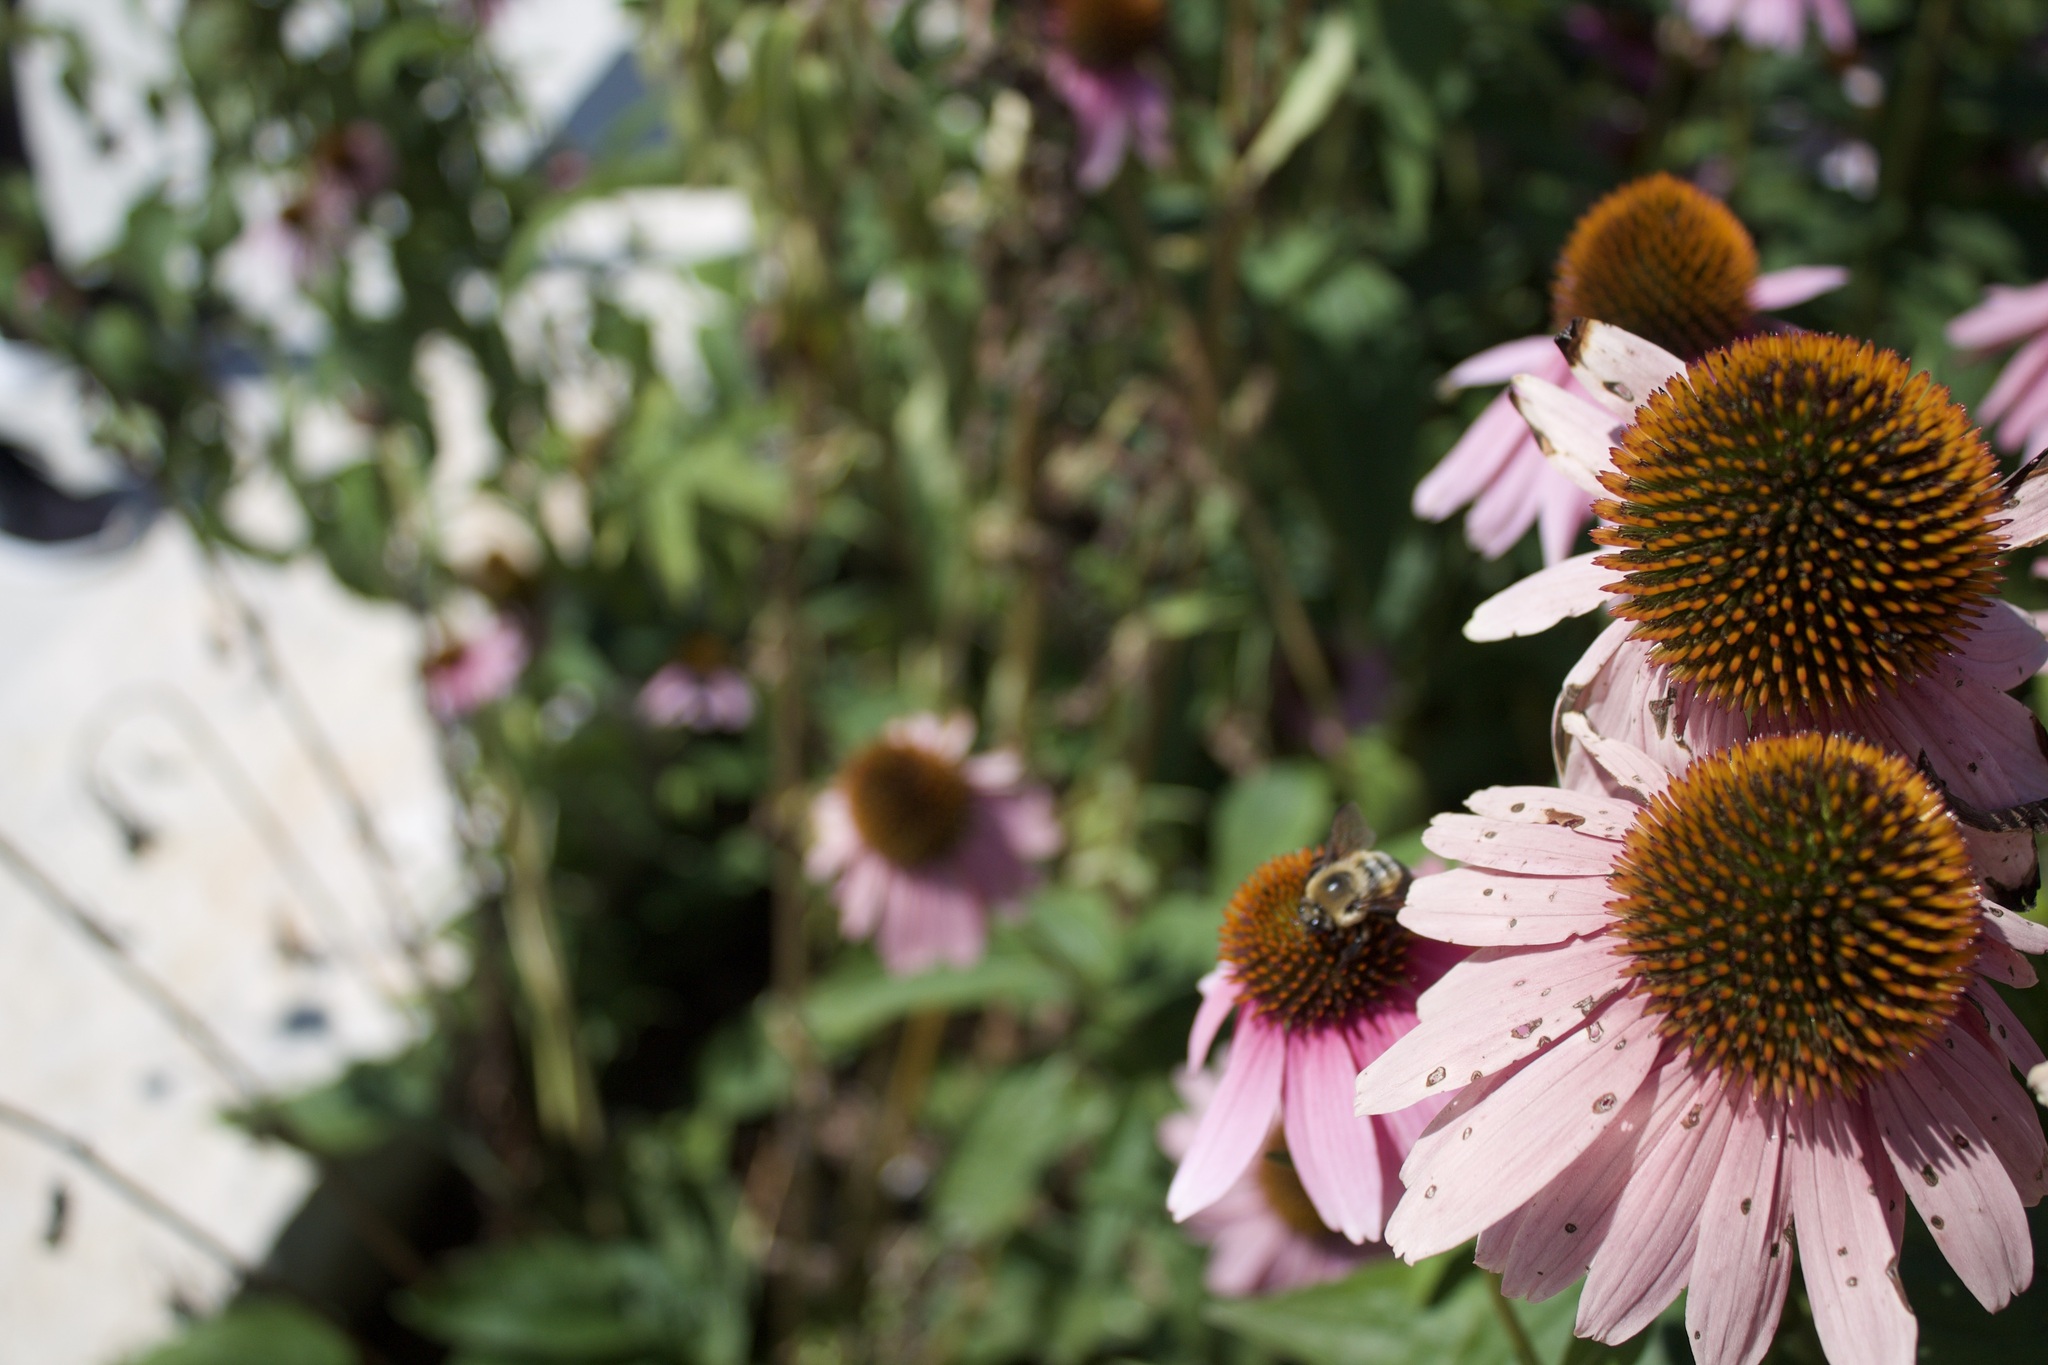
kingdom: Animalia
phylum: Arthropoda
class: Insecta
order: Hymenoptera
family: Apidae
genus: Bombus
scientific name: Bombus griseocollis
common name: Brown-belted bumble bee
